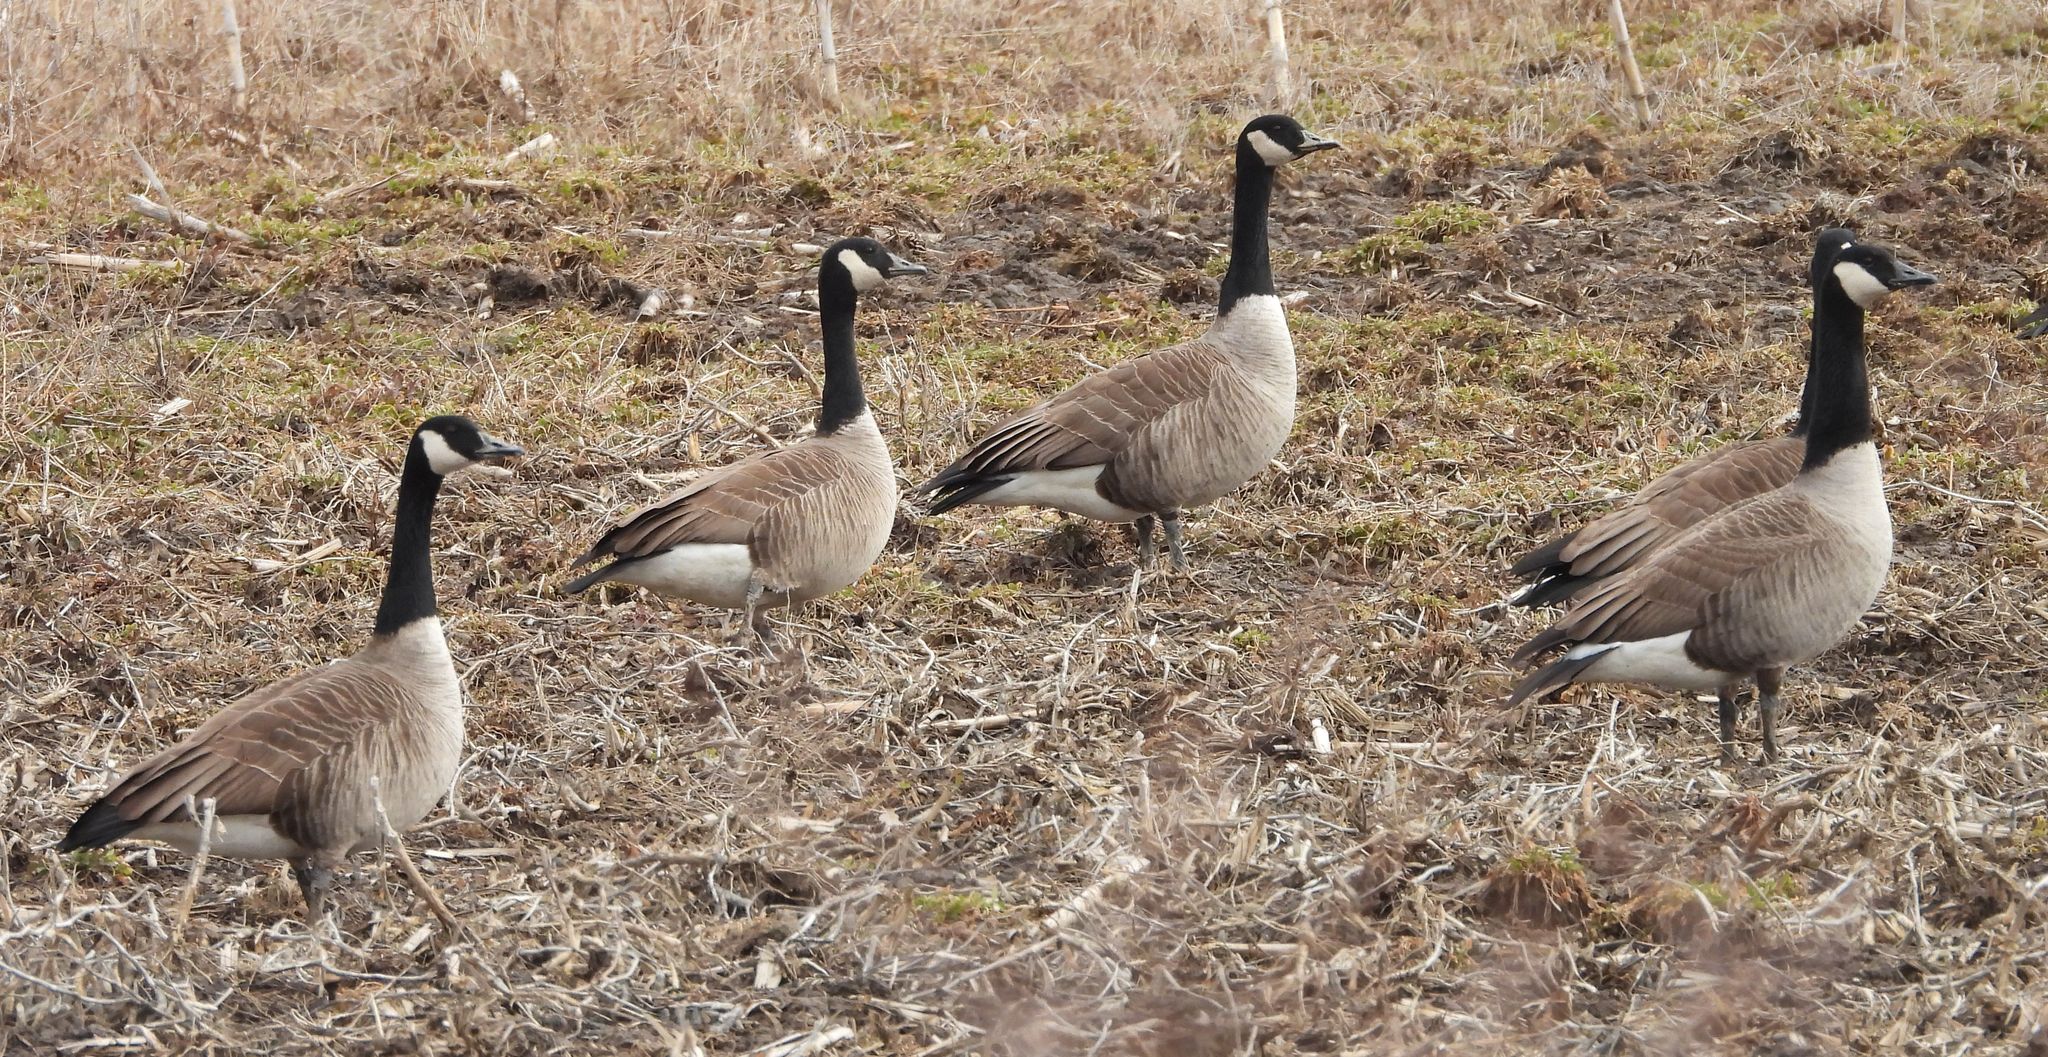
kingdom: Animalia
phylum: Chordata
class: Aves
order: Anseriformes
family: Anatidae
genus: Branta
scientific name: Branta canadensis
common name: Canada goose
